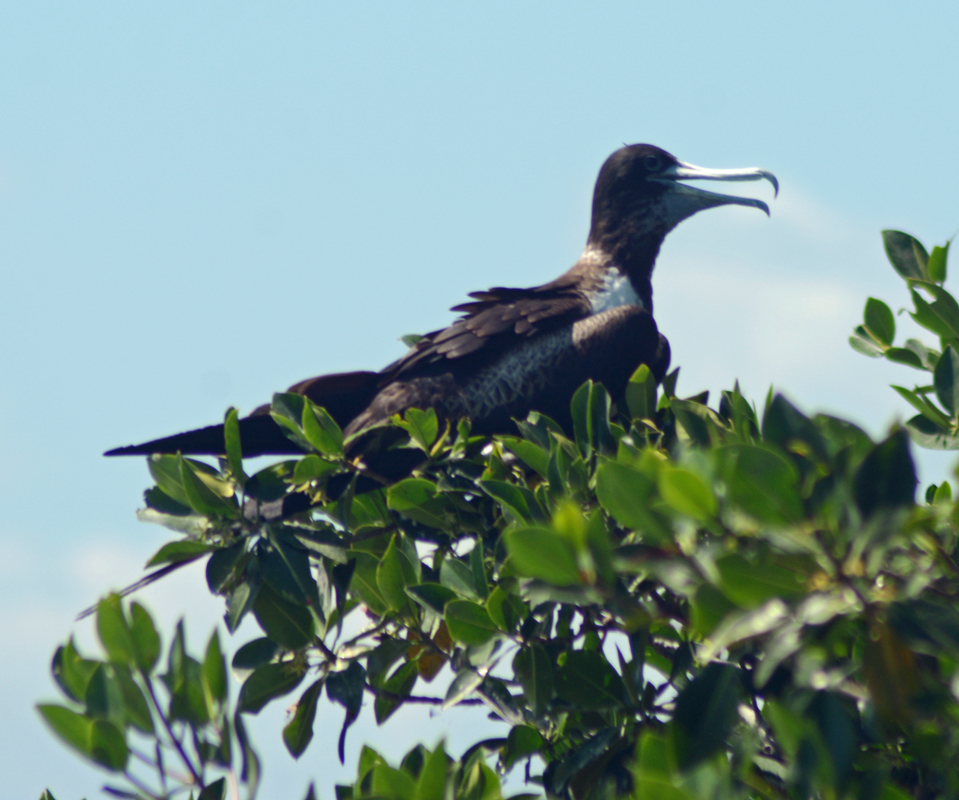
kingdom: Animalia
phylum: Chordata
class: Aves
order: Suliformes
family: Fregatidae
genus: Fregata
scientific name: Fregata magnificens
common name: Magnificent frigatebird
